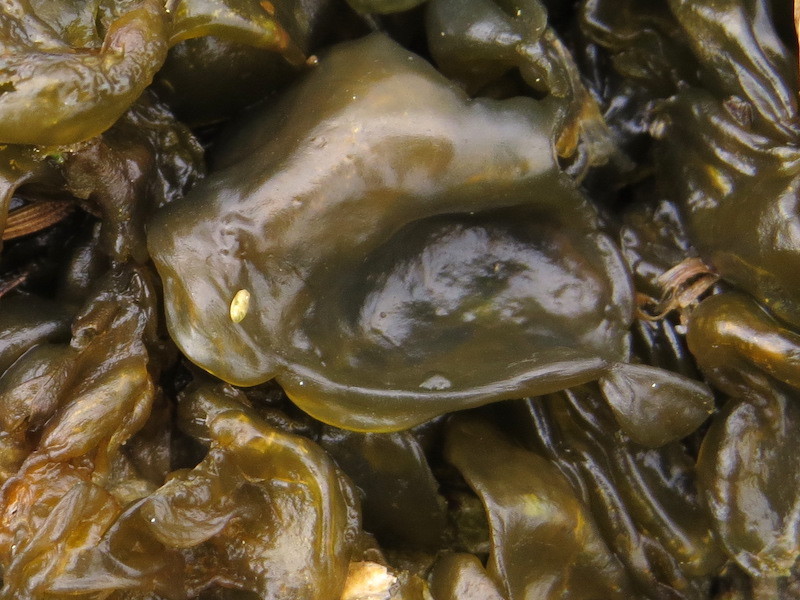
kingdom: Bacteria
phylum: Cyanobacteria
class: Cyanobacteriia
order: Cyanobacteriales
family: Nostocaceae
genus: Nostoc
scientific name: Nostoc commune
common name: Star jelly
